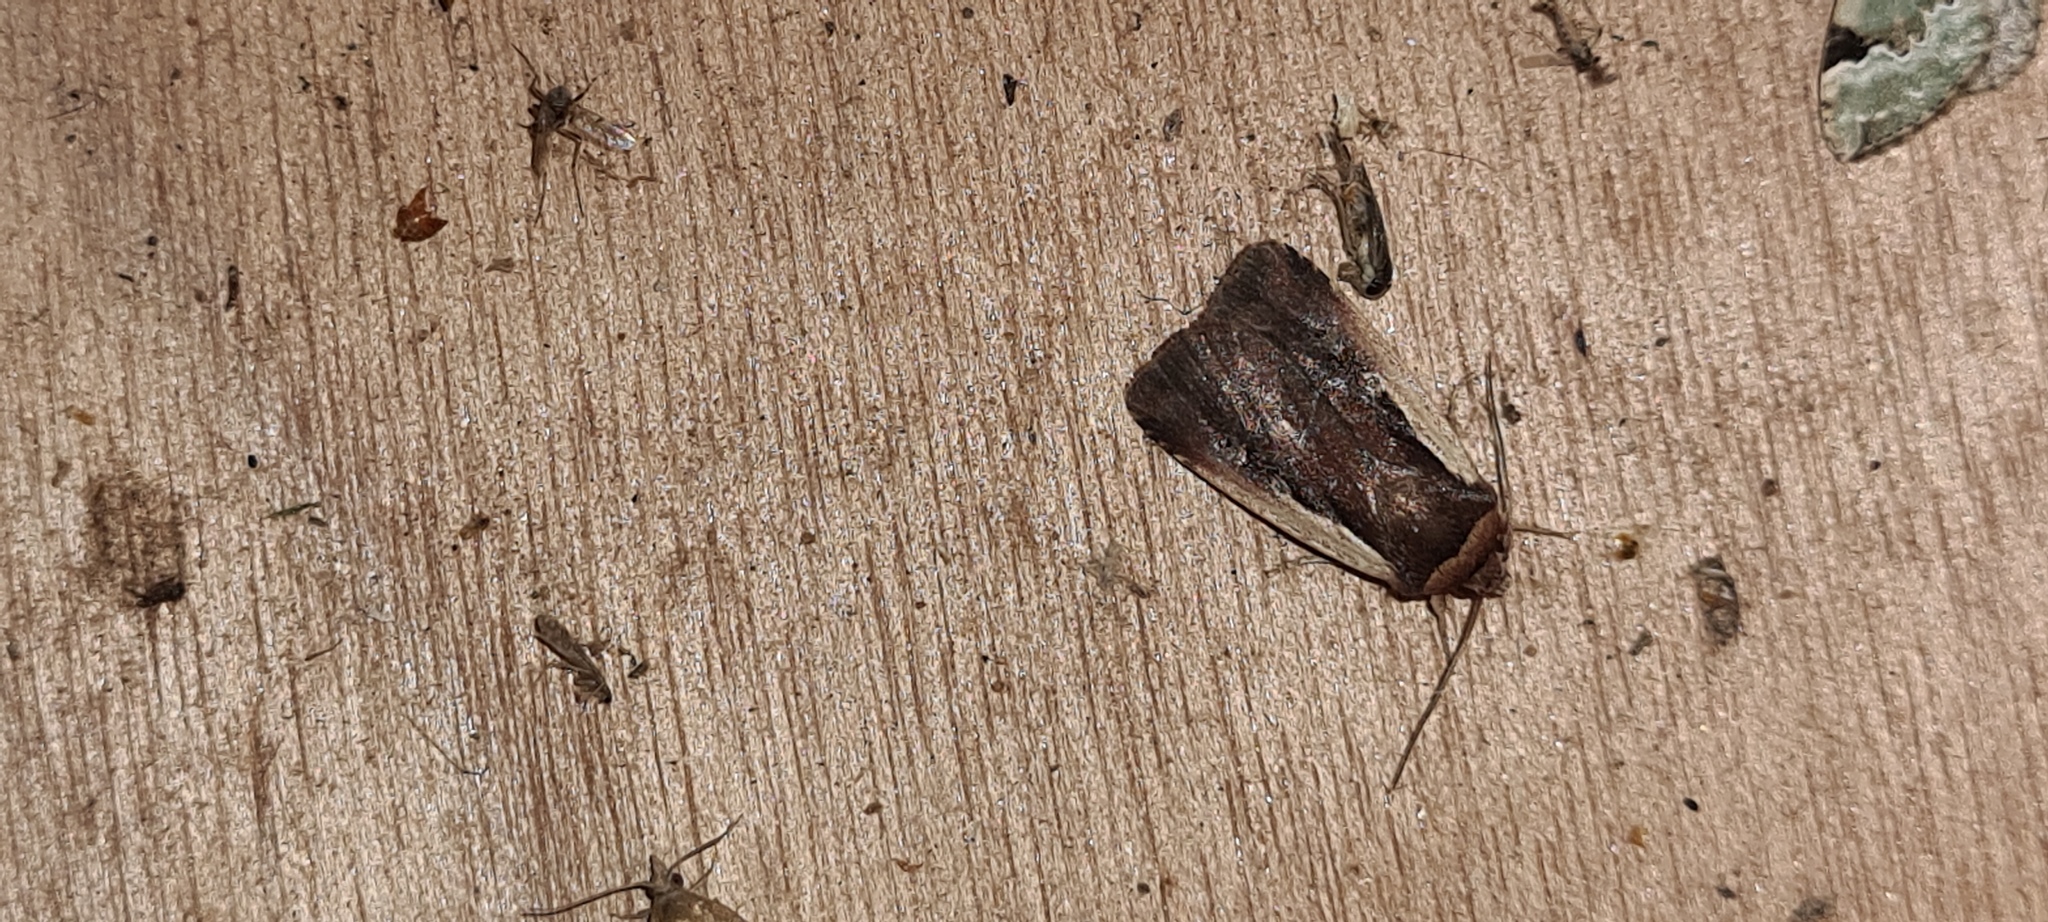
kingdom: Animalia
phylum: Arthropoda
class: Insecta
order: Lepidoptera
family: Noctuidae
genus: Ochropleura
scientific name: Ochropleura plecta
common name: Flame shoulder
